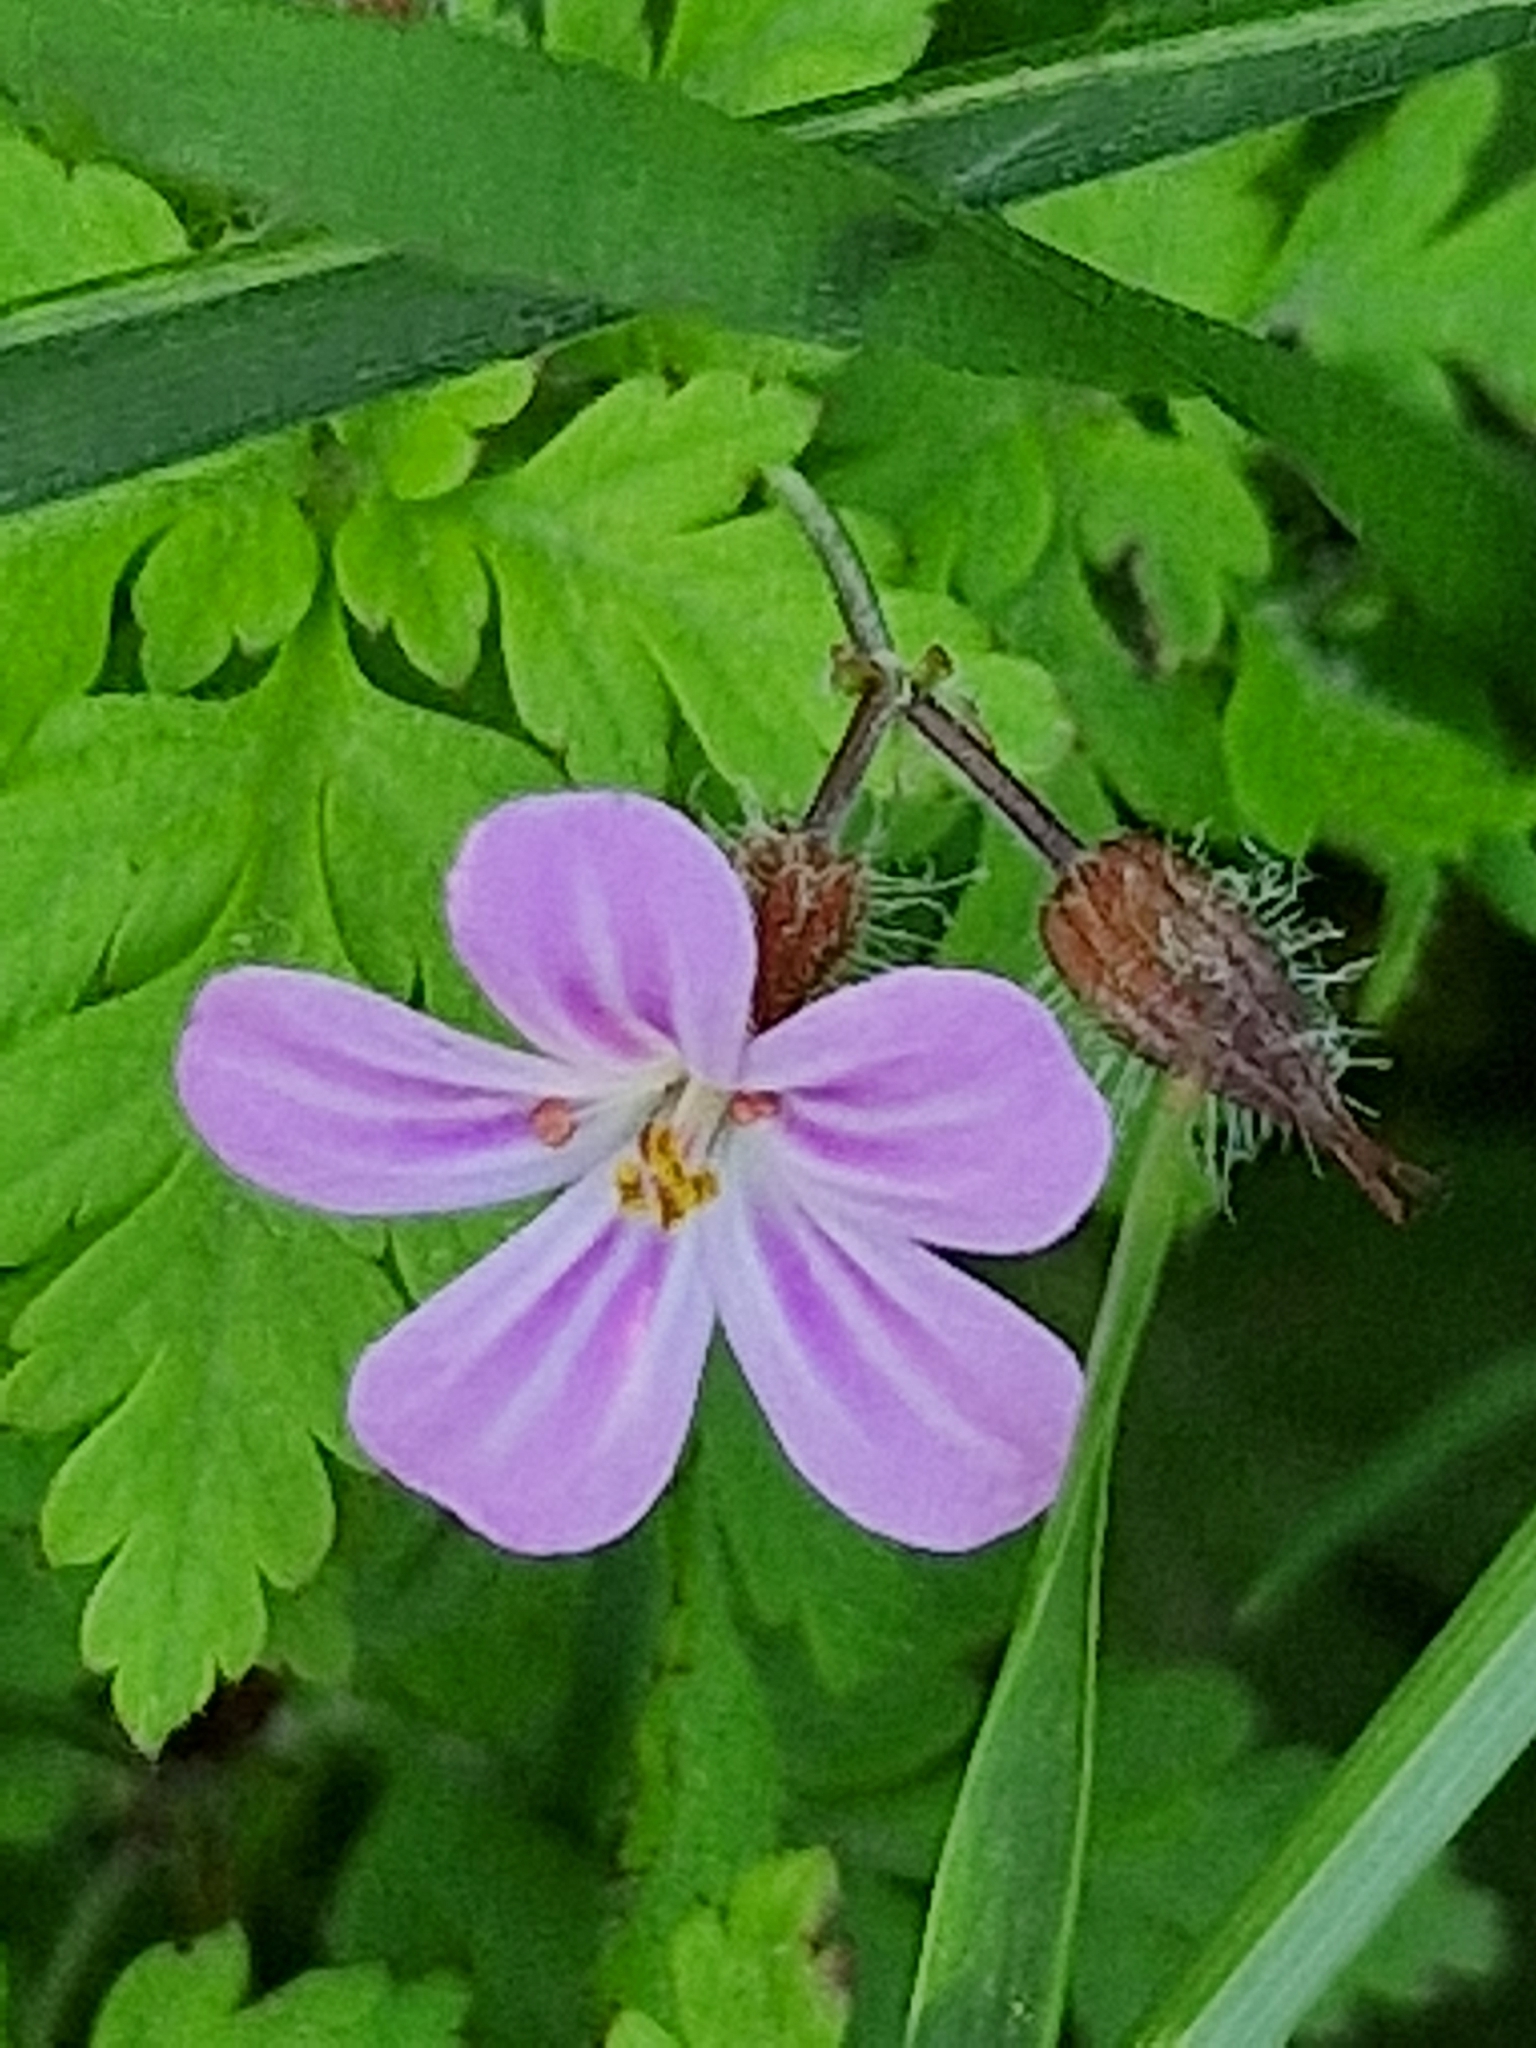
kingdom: Plantae
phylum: Tracheophyta
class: Magnoliopsida
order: Geraniales
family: Geraniaceae
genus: Geranium
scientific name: Geranium robertianum
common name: Herb-robert
